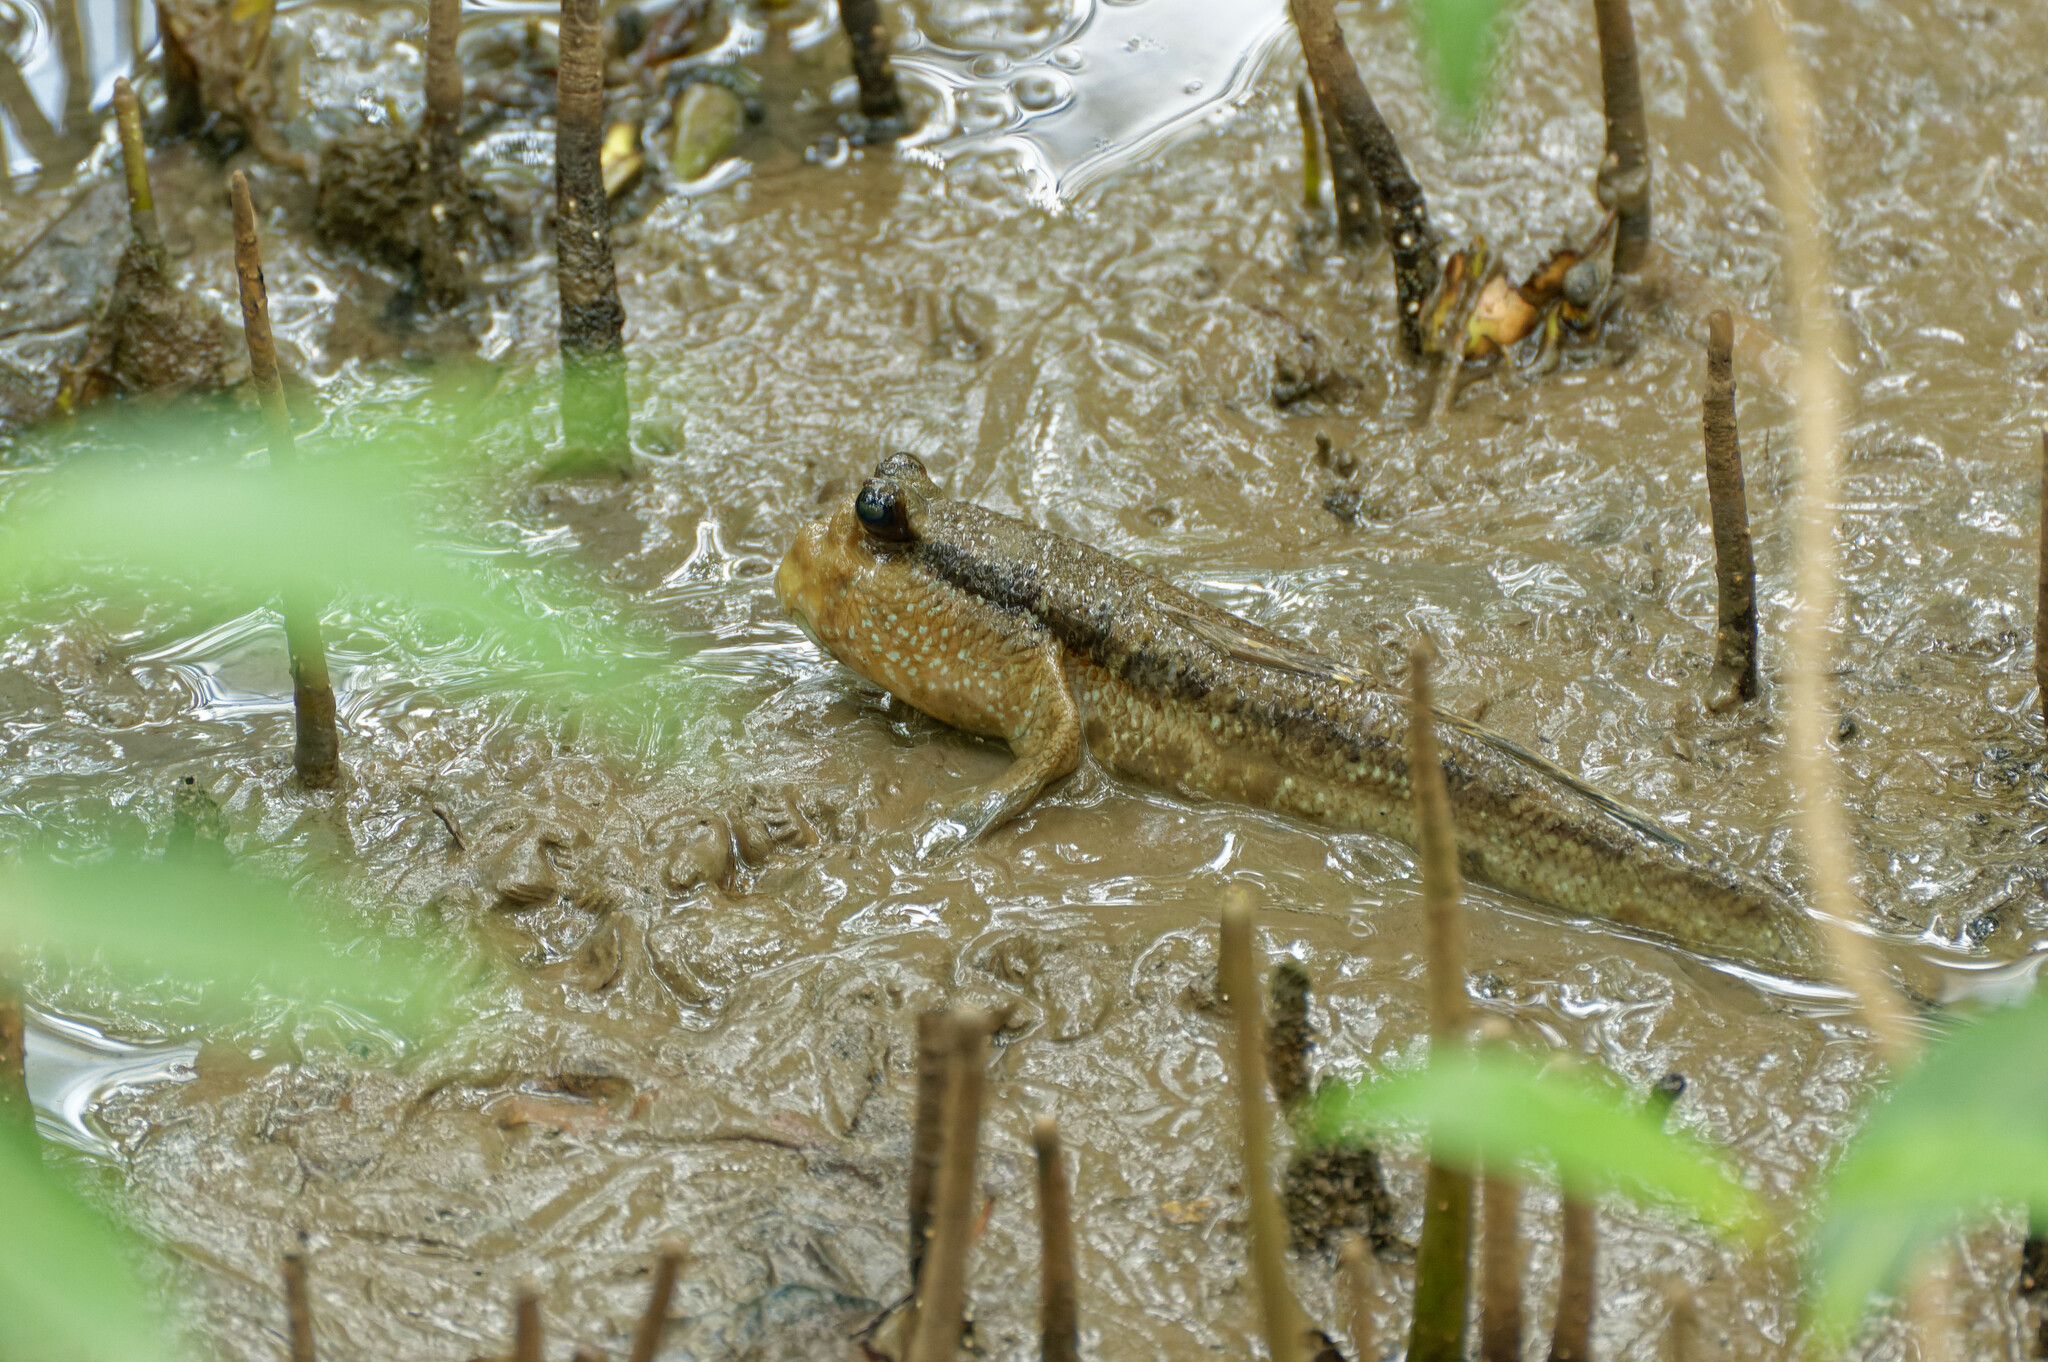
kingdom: Animalia
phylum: Chordata
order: Perciformes
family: Gobiidae
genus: Periophthalmodon
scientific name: Periophthalmodon schlosseri
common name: Giant mudskipper
